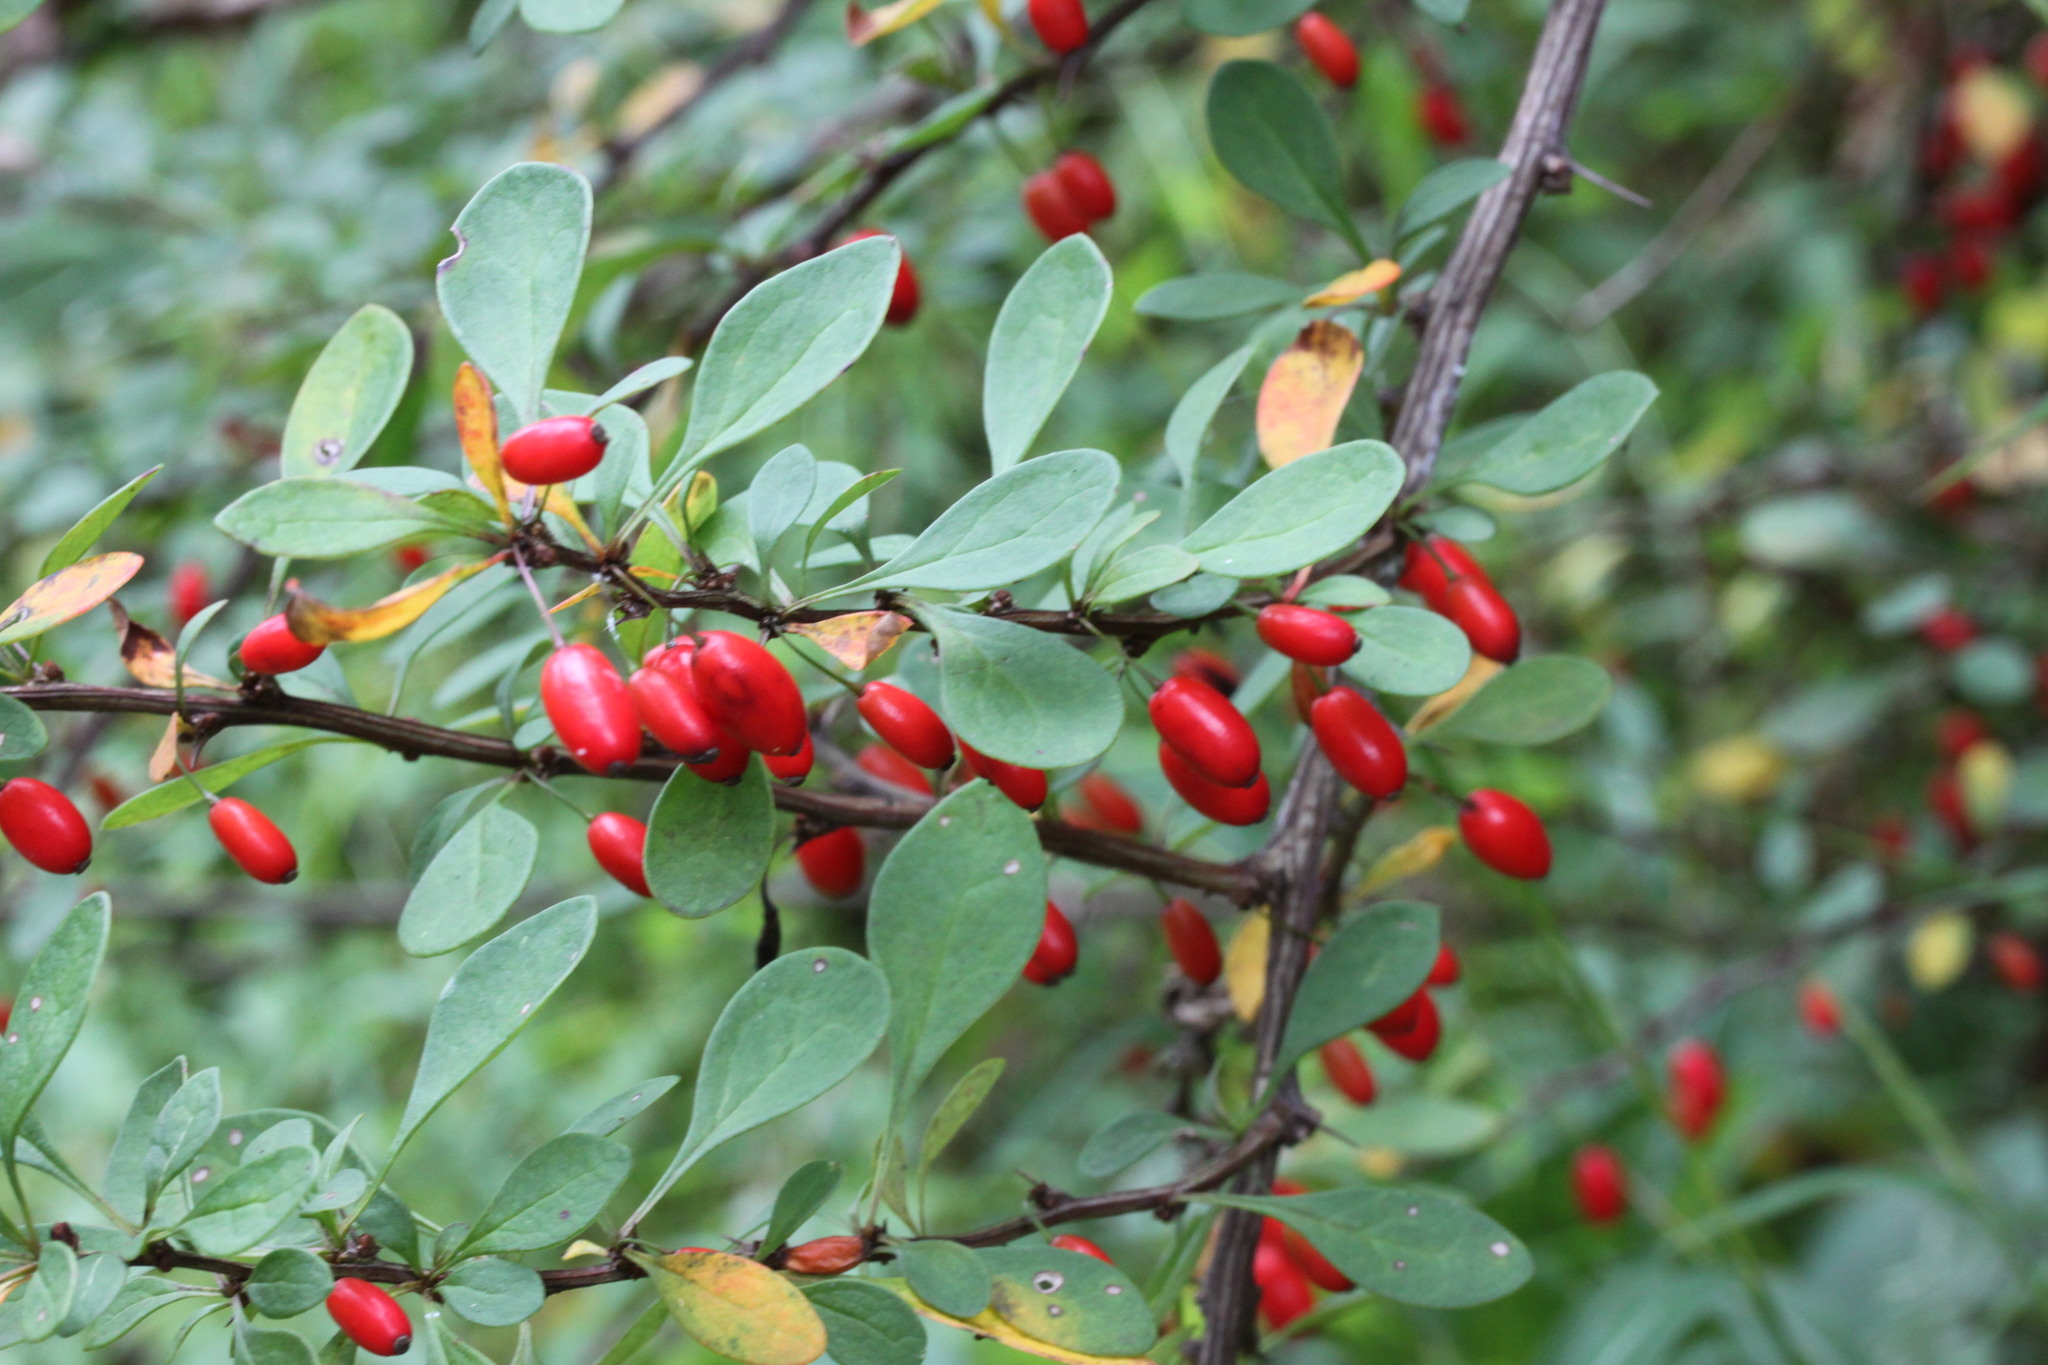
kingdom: Plantae
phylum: Tracheophyta
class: Magnoliopsida
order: Ranunculales
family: Berberidaceae
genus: Berberis
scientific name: Berberis thunbergii
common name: Japanese barberry
